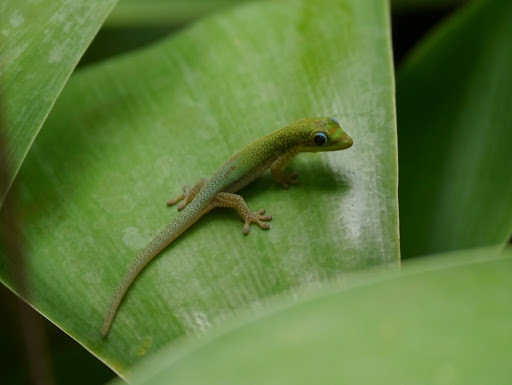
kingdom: Animalia
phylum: Chordata
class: Squamata
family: Gekkonidae
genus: Phelsuma
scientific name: Phelsuma laticauda
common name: Gold dust day gecko
